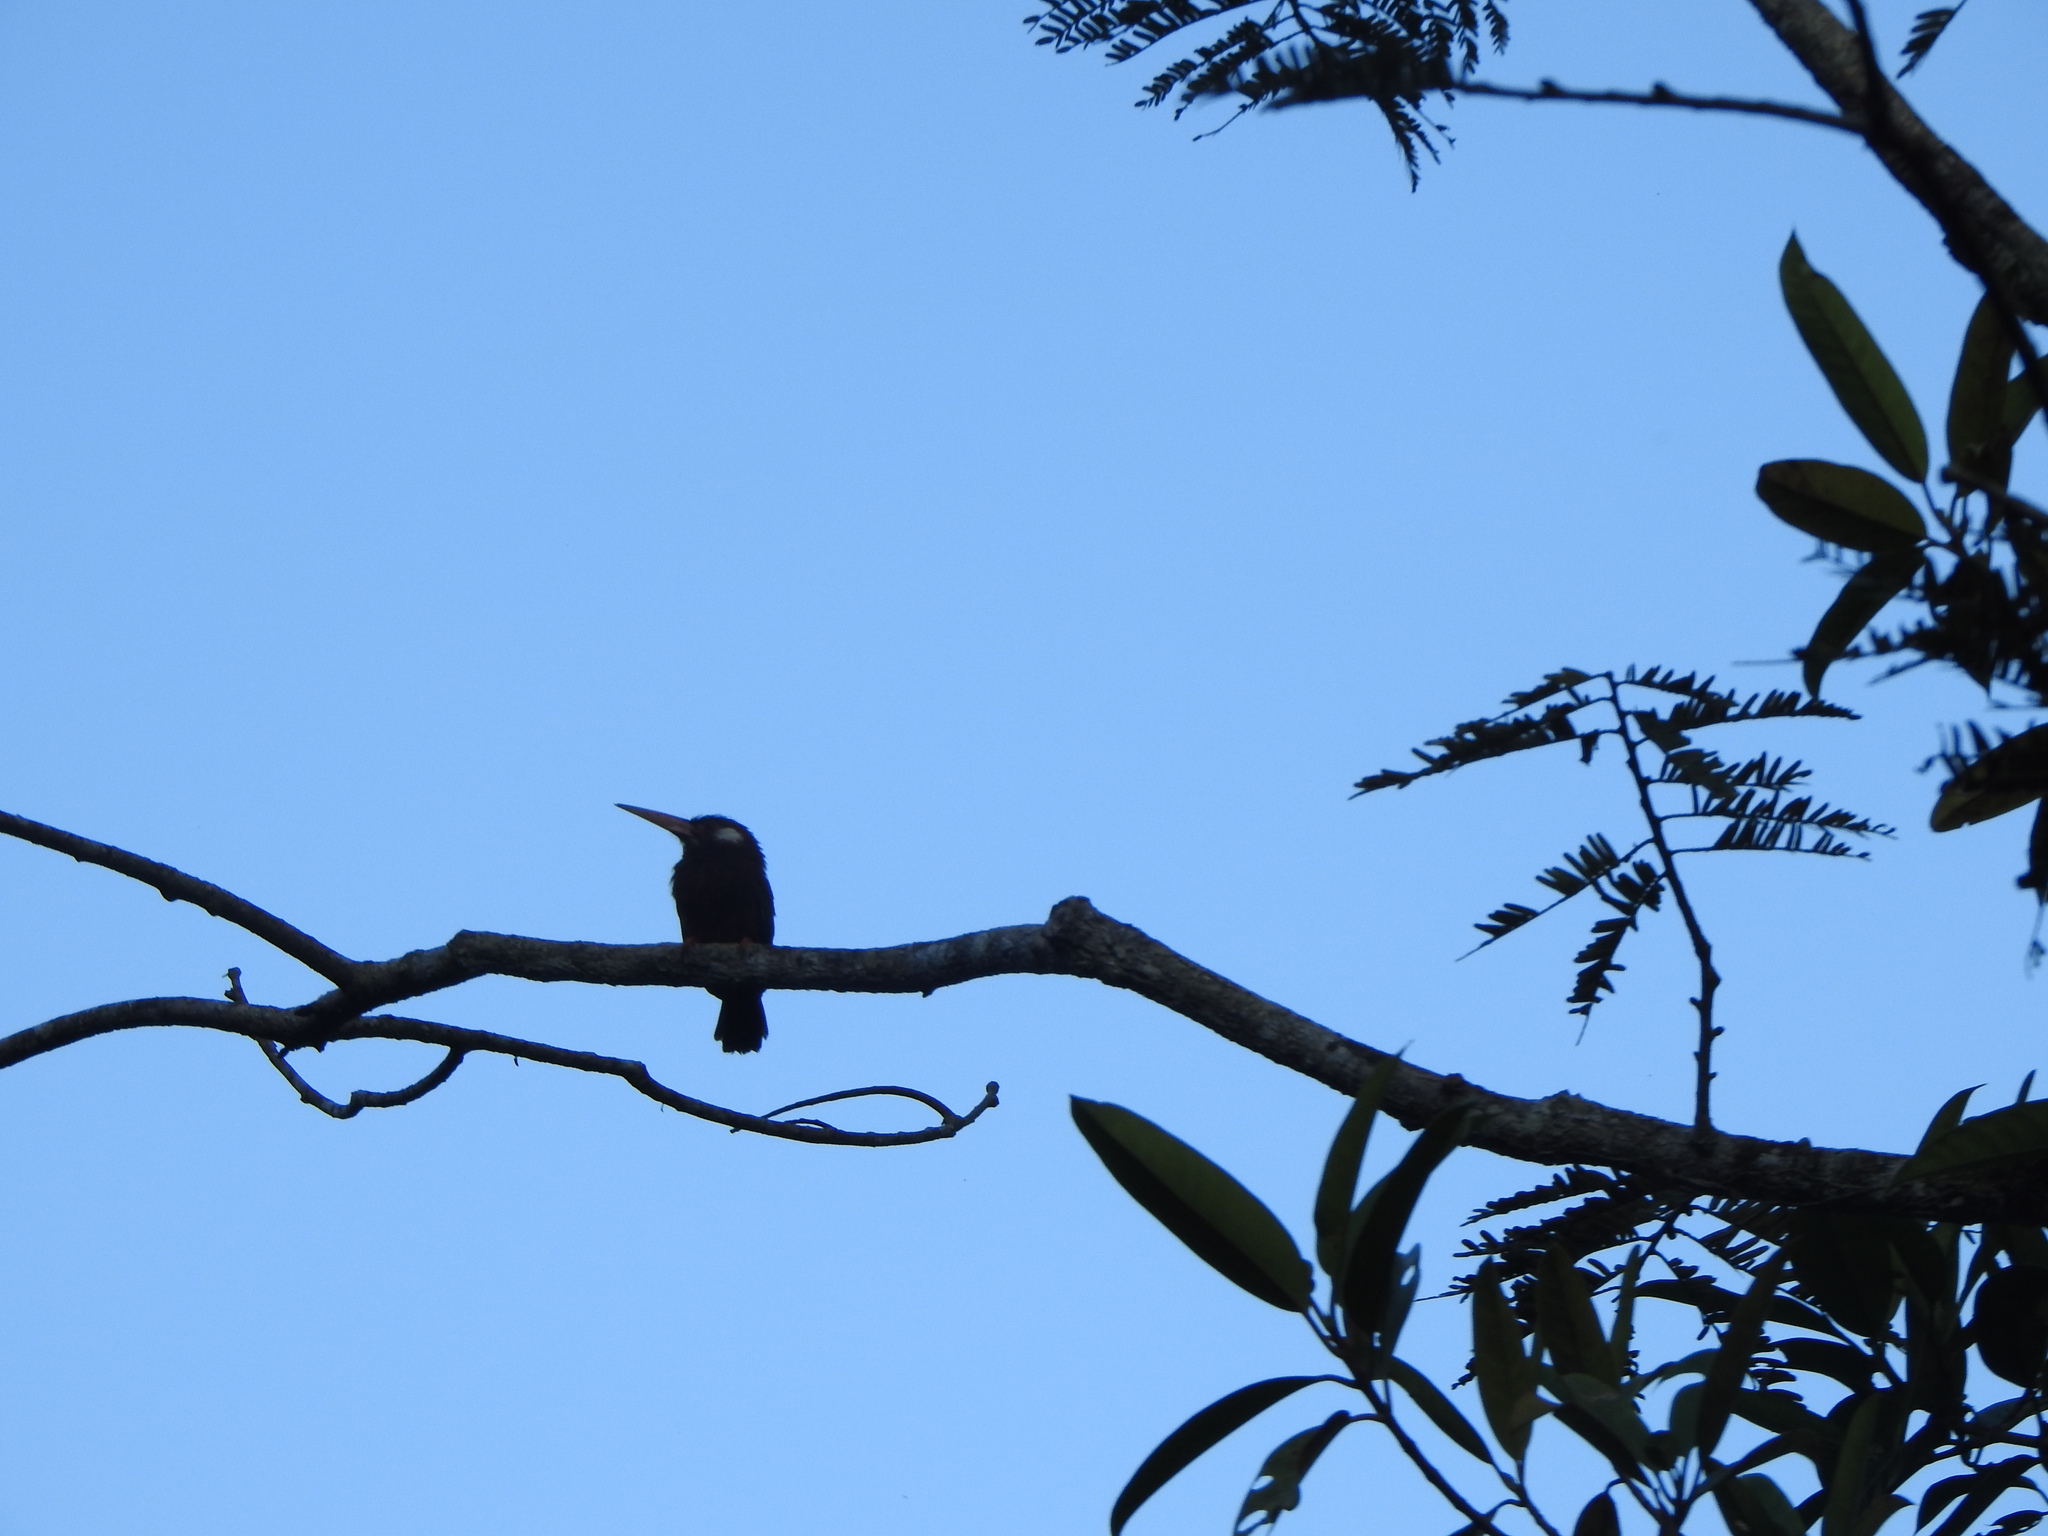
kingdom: Animalia
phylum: Chordata
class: Aves
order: Piciformes
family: Galbulidae
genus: Galbalcyrhynchus
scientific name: Galbalcyrhynchus leucotis
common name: White-eared jacamar
